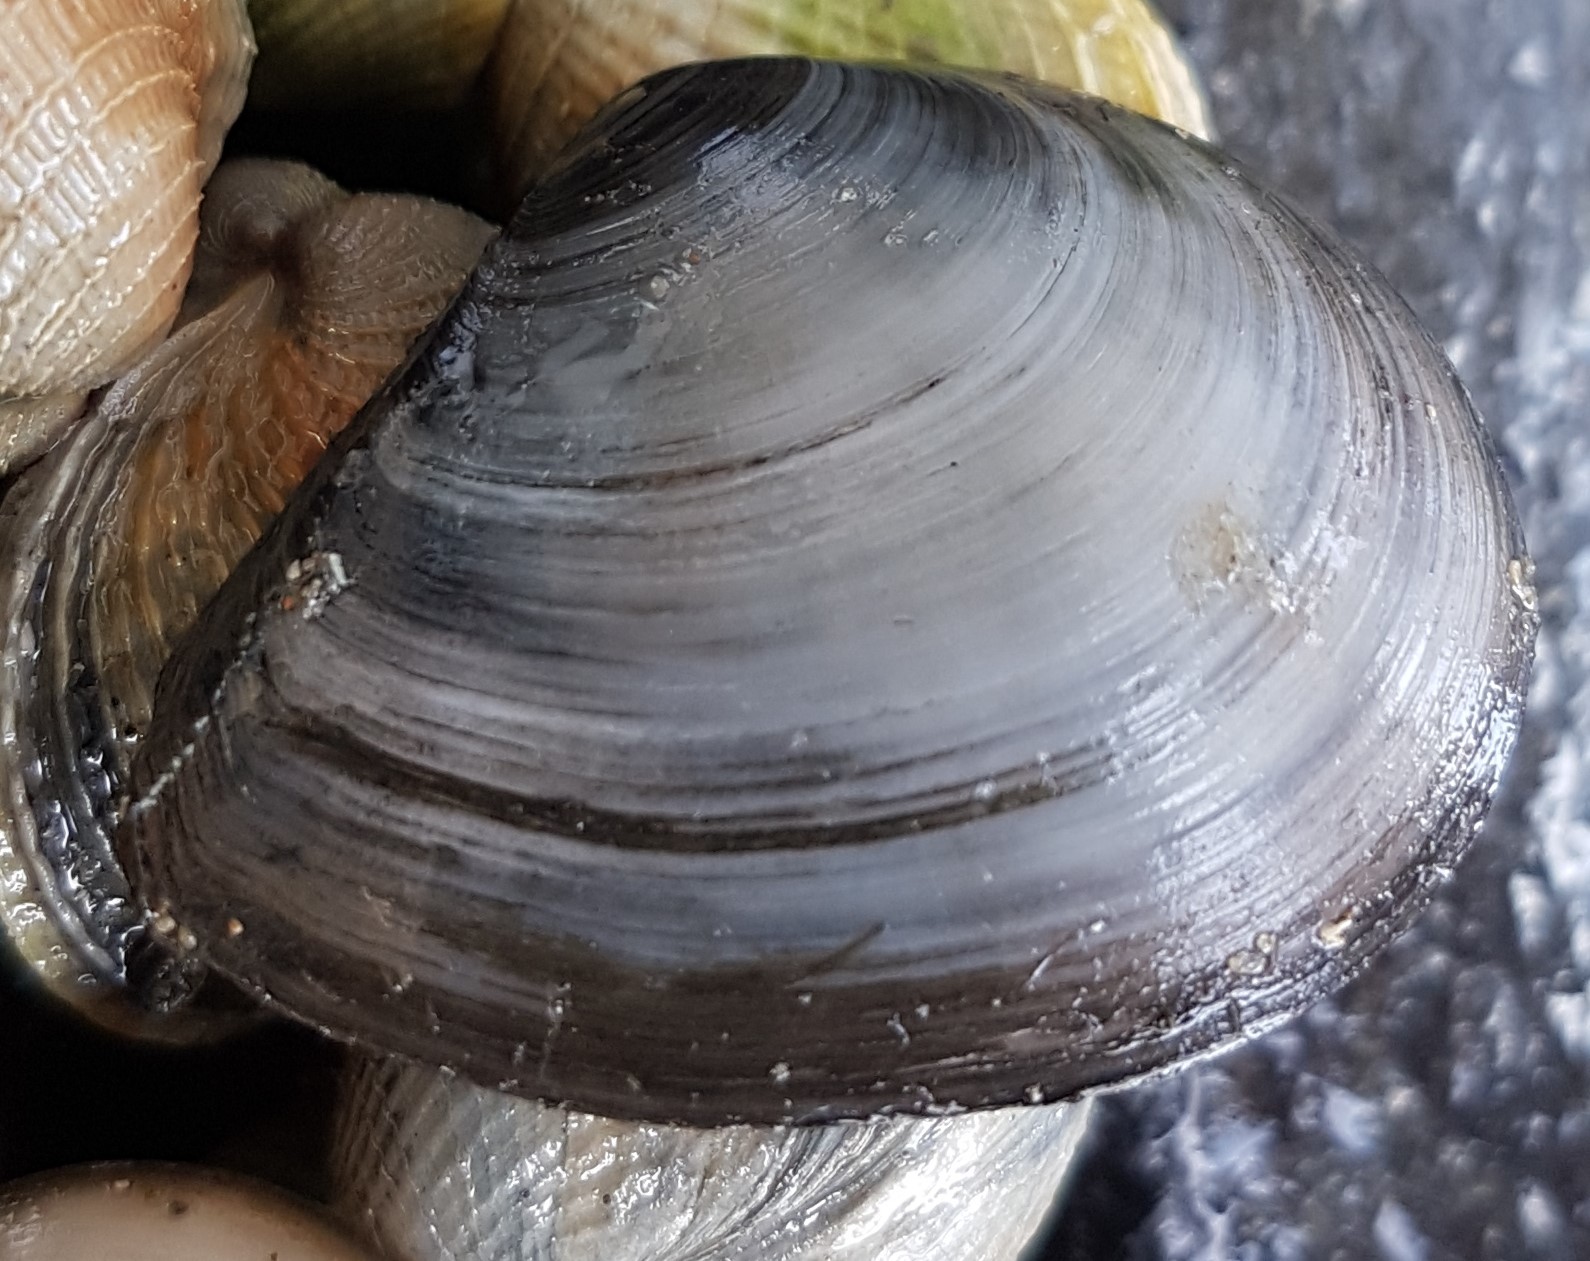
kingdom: Animalia
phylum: Mollusca
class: Bivalvia
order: Cardiida
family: Tellinidae
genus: Macomona
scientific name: Macomona liliana
